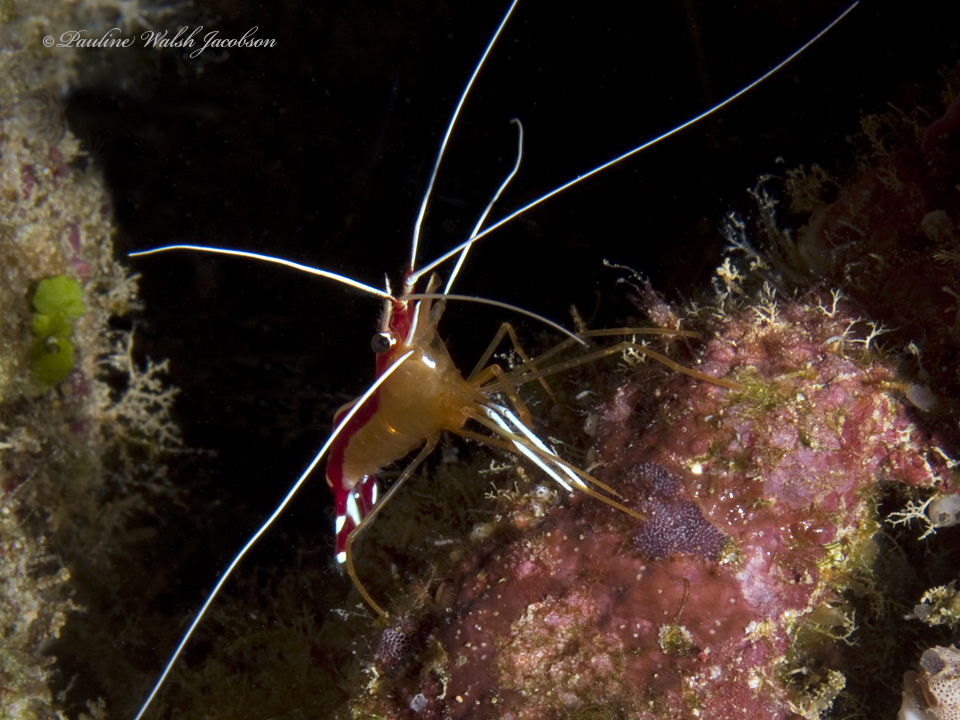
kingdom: Animalia
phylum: Arthropoda
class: Malacostraca
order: Decapoda
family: Lysmatidae
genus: Lysmata
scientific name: Lysmata amboinensis
